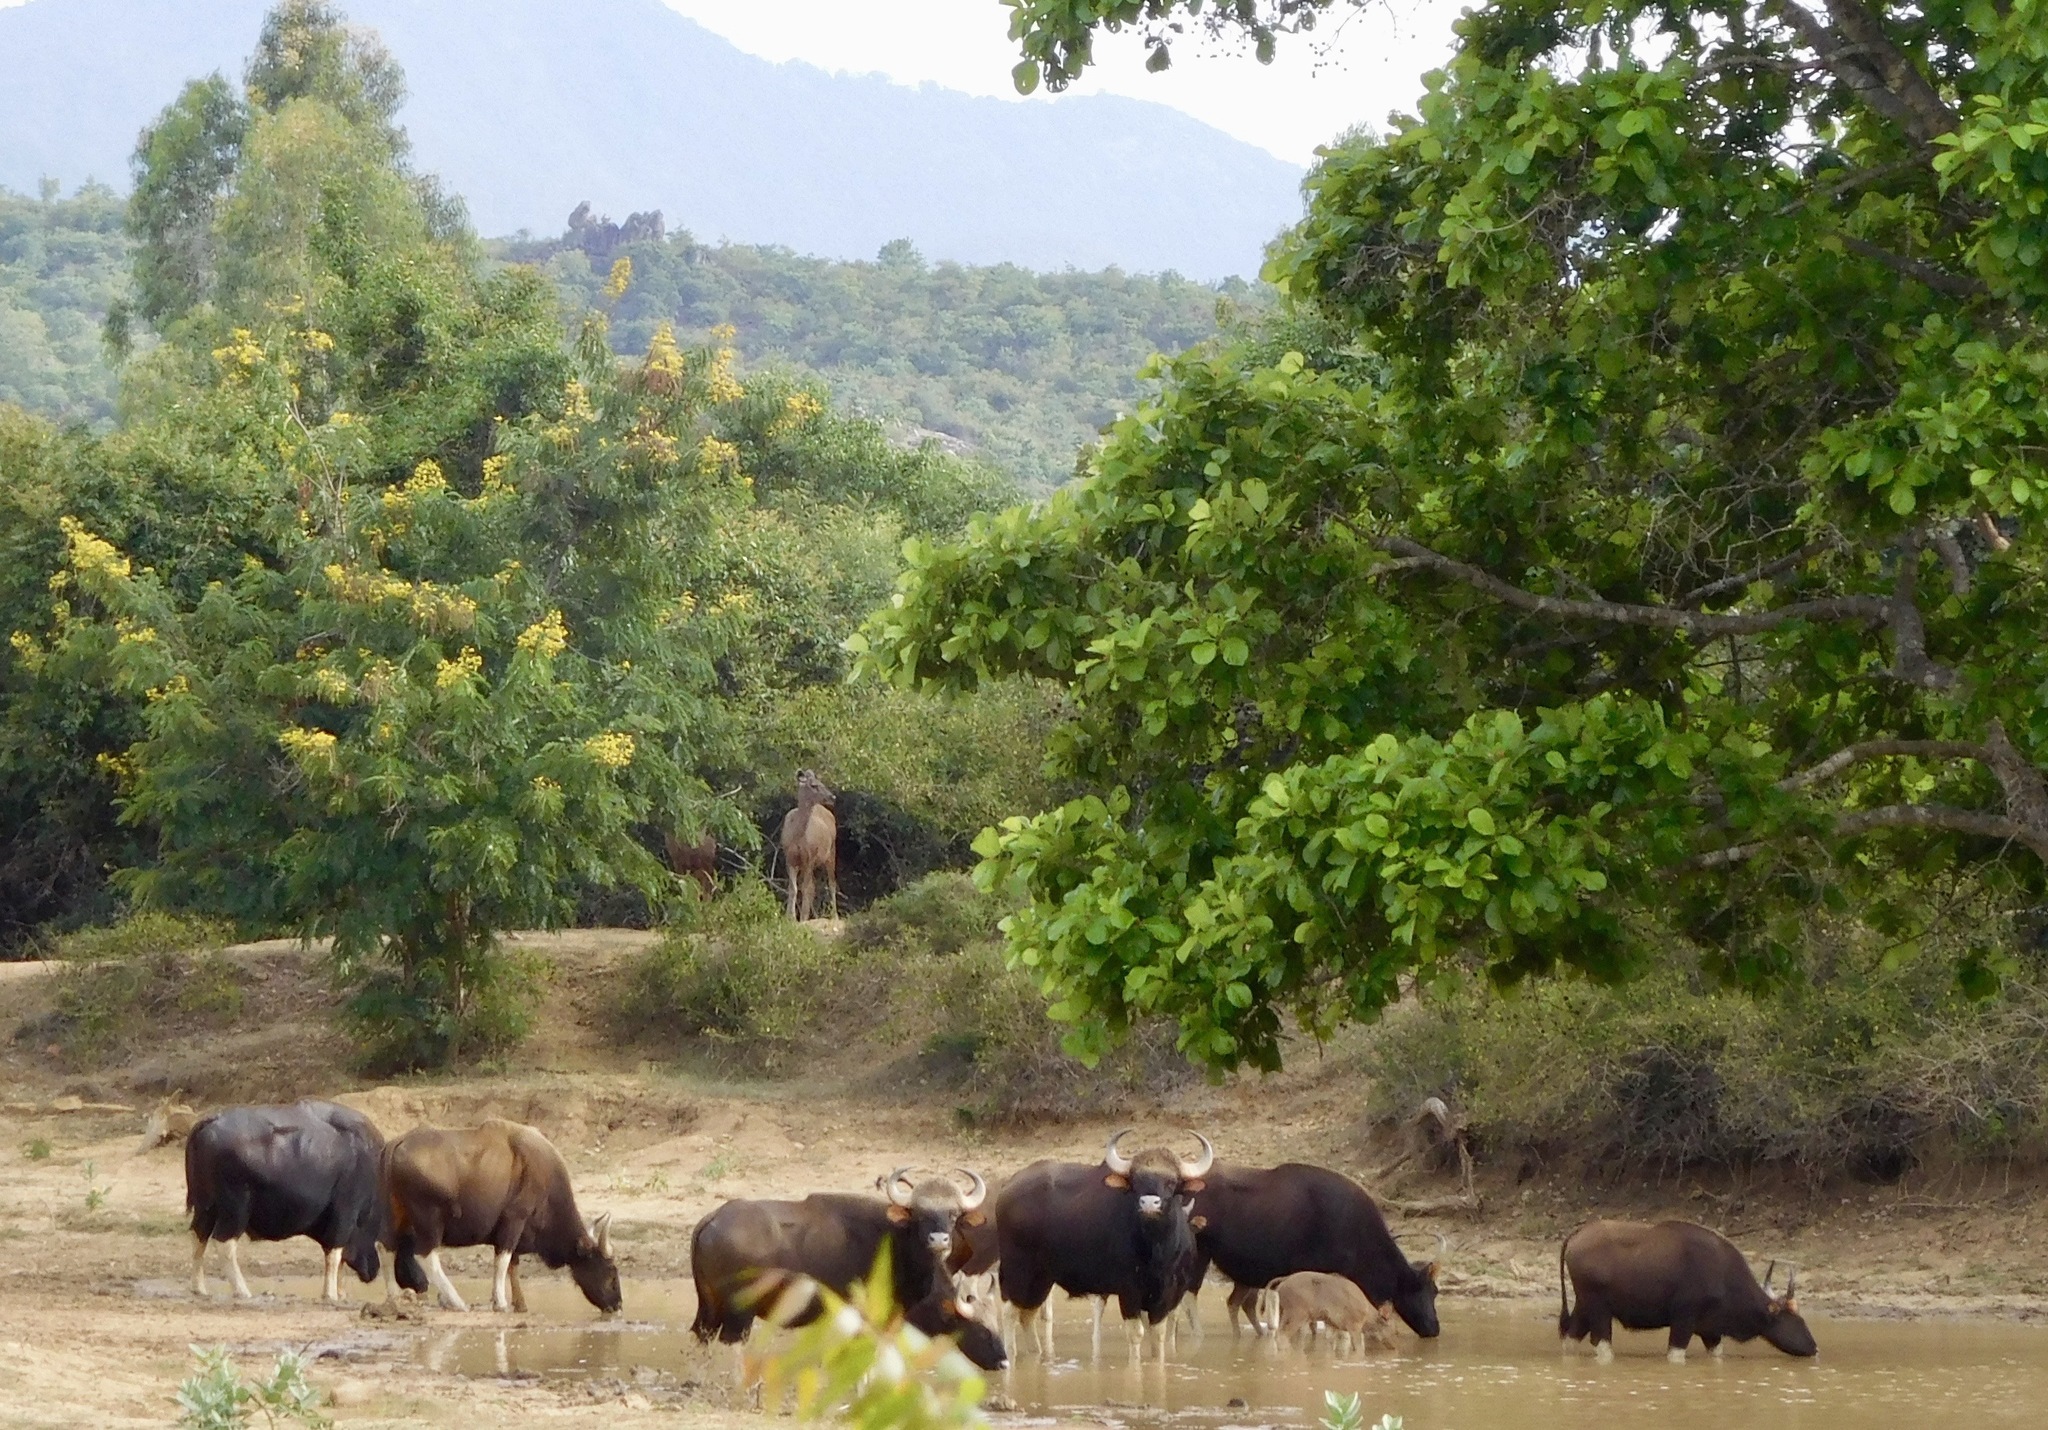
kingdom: Animalia
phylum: Chordata
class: Mammalia
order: Artiodactyla
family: Bovidae
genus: Bos
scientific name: Bos frontalis
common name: Gaur
